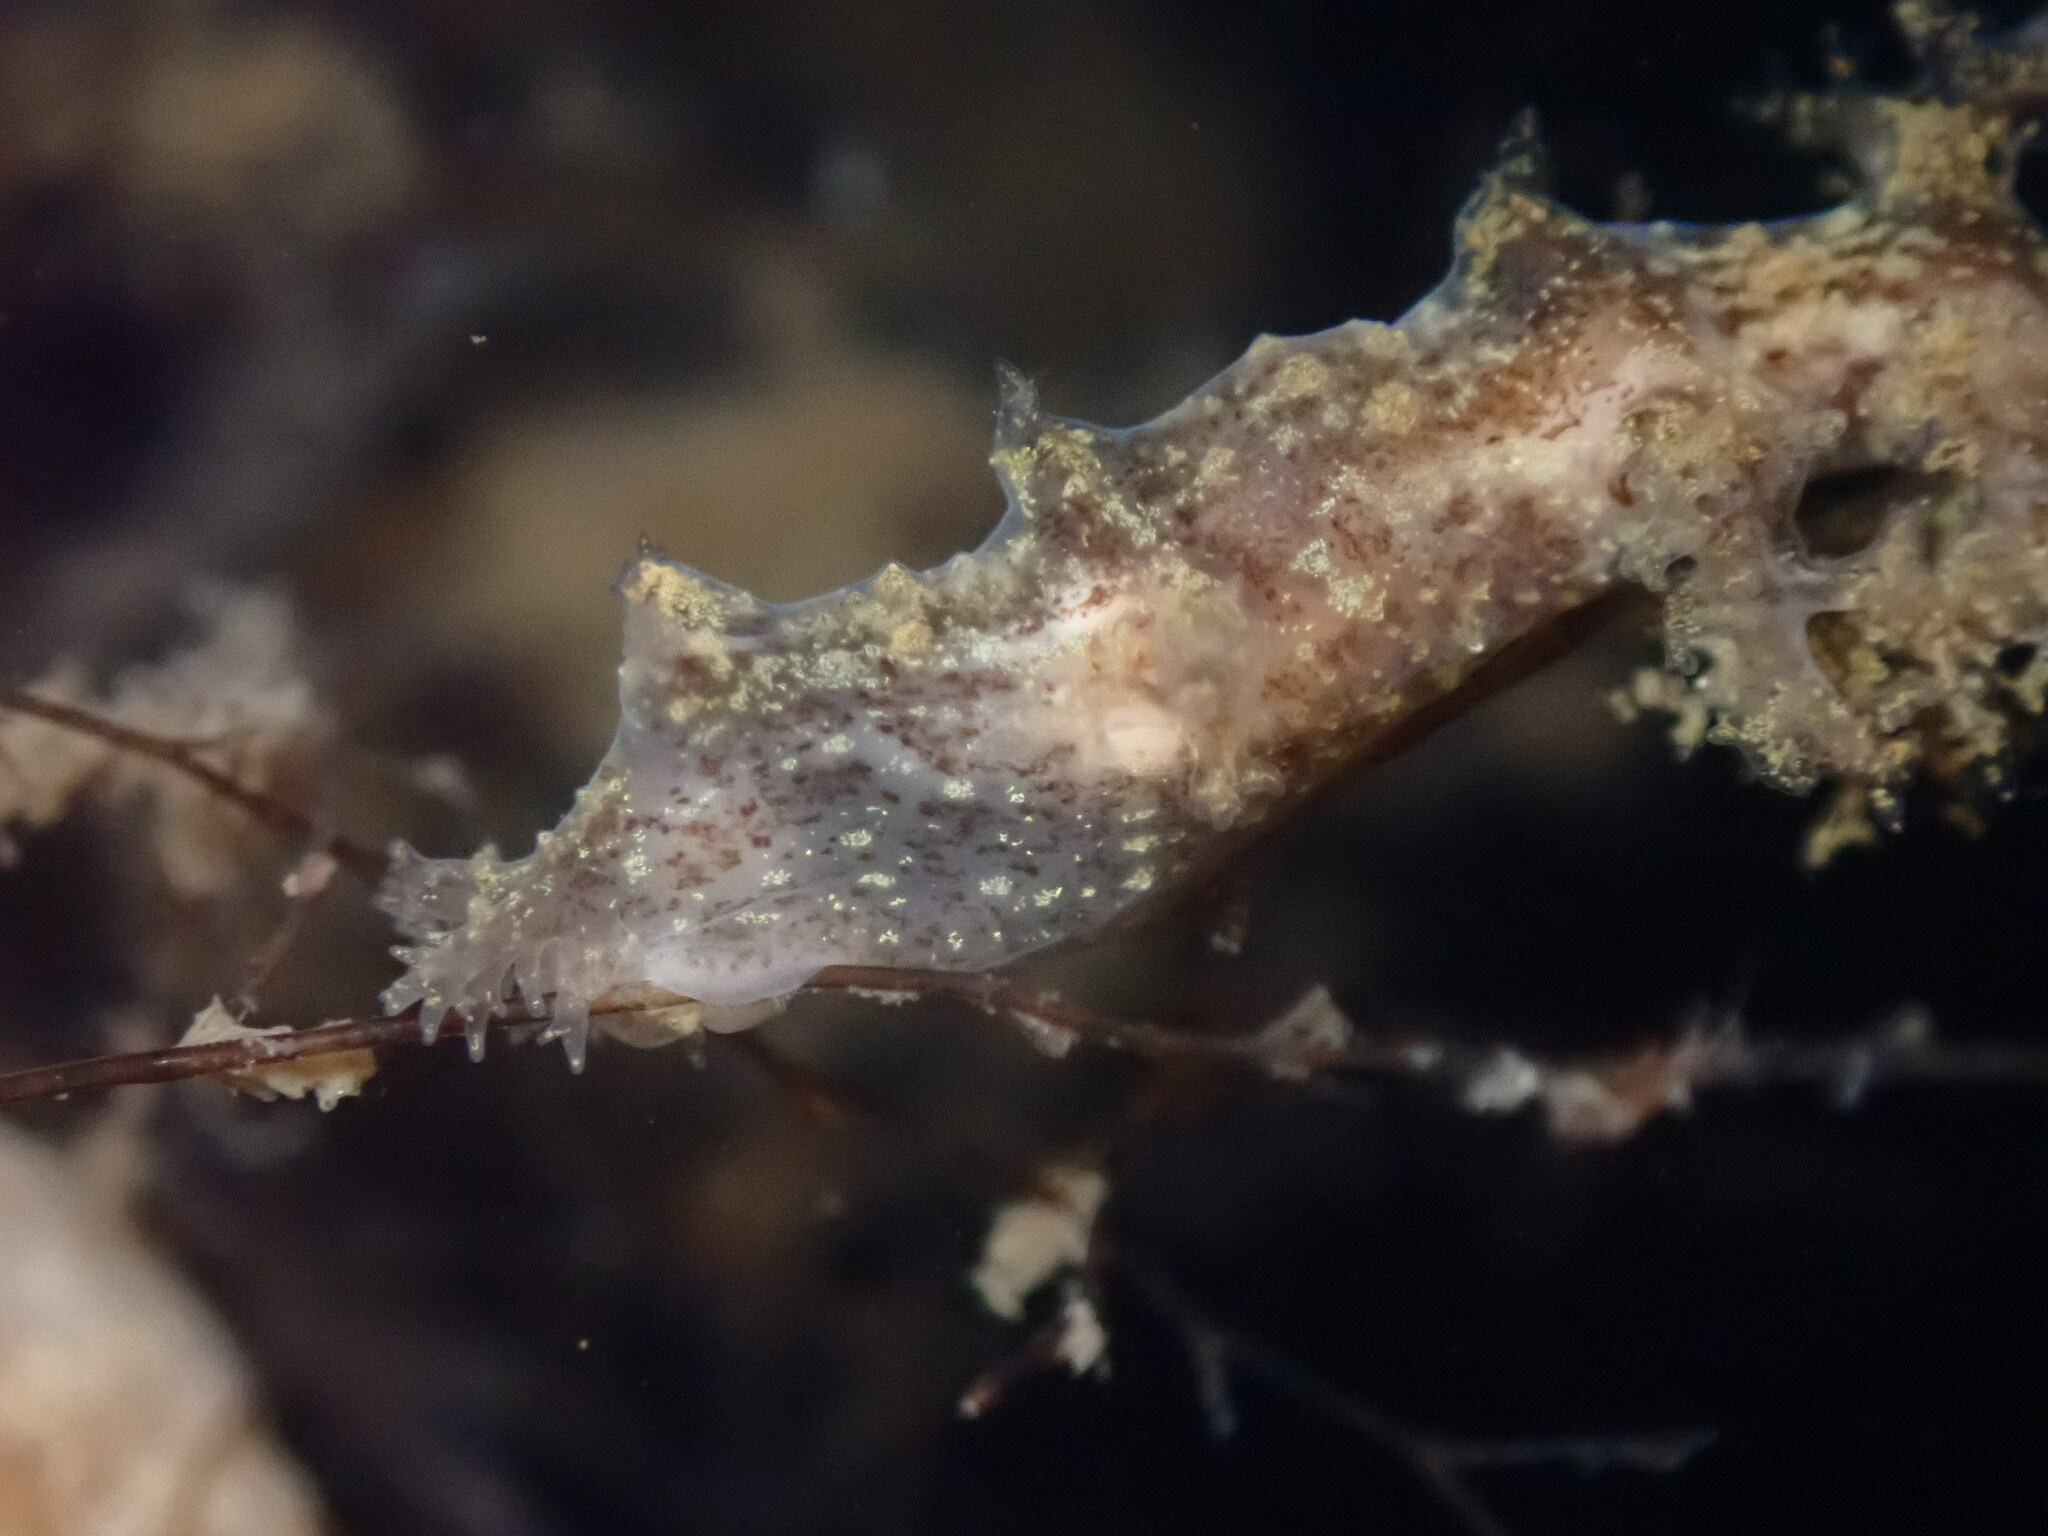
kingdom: Animalia
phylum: Mollusca
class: Gastropoda
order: Nudibranchia
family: Dendronotidae
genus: Dendronotus
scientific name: Dendronotus venustus
